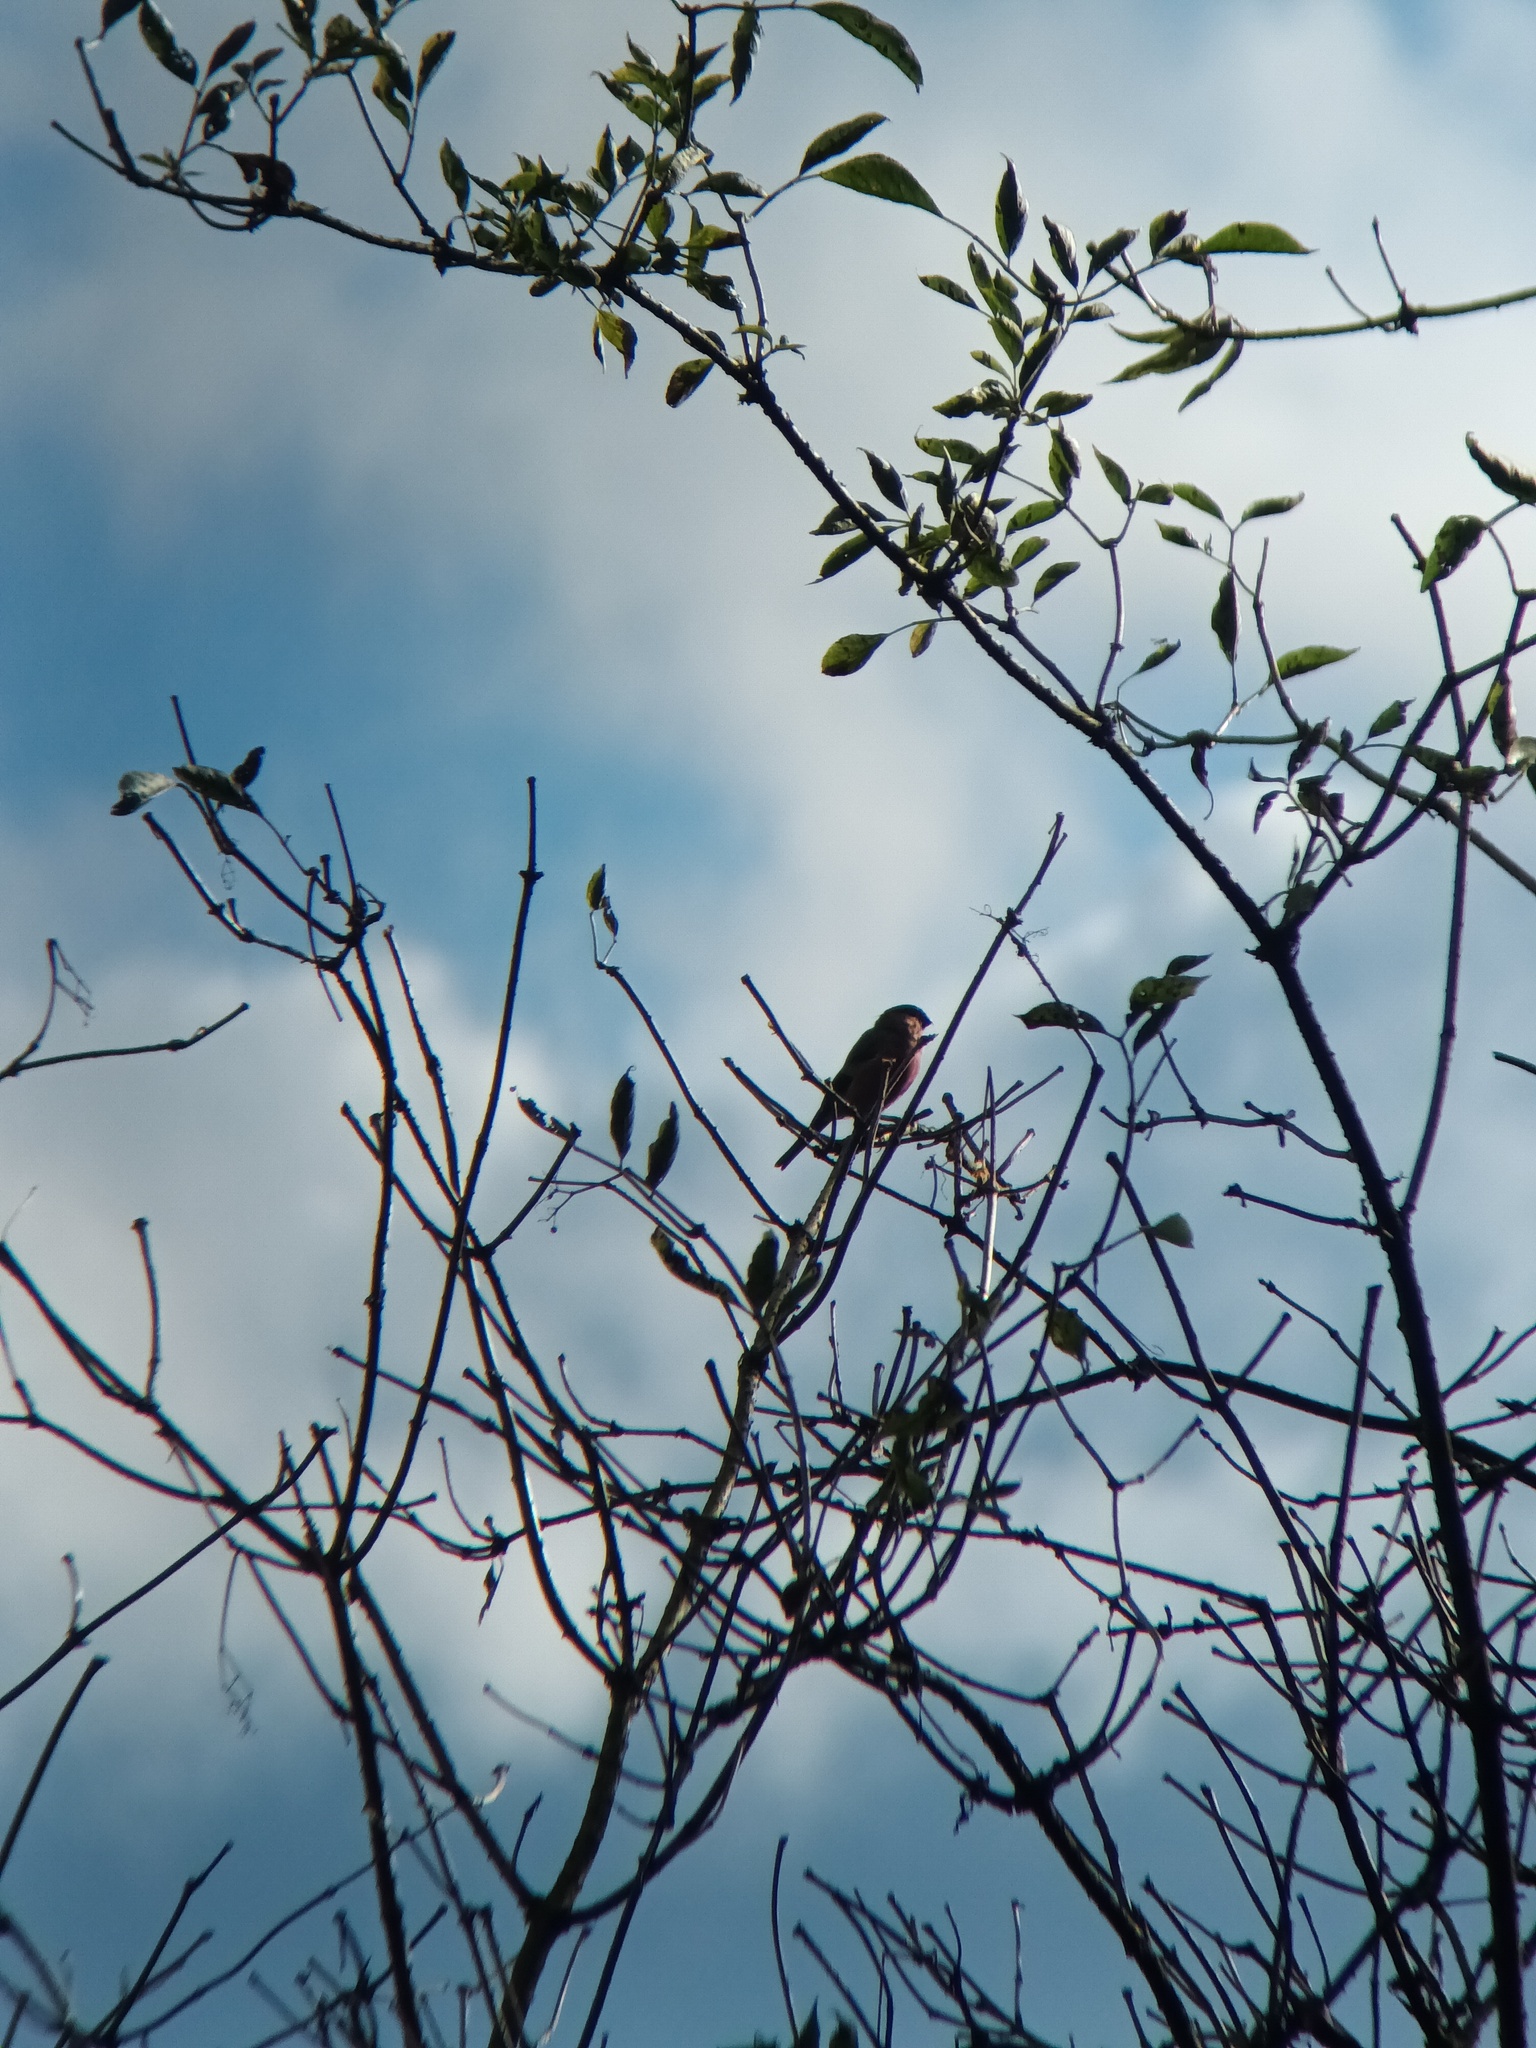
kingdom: Animalia
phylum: Chordata
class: Aves
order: Passeriformes
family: Fringillidae
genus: Pyrrhula
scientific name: Pyrrhula pyrrhula
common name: Eurasian bullfinch
